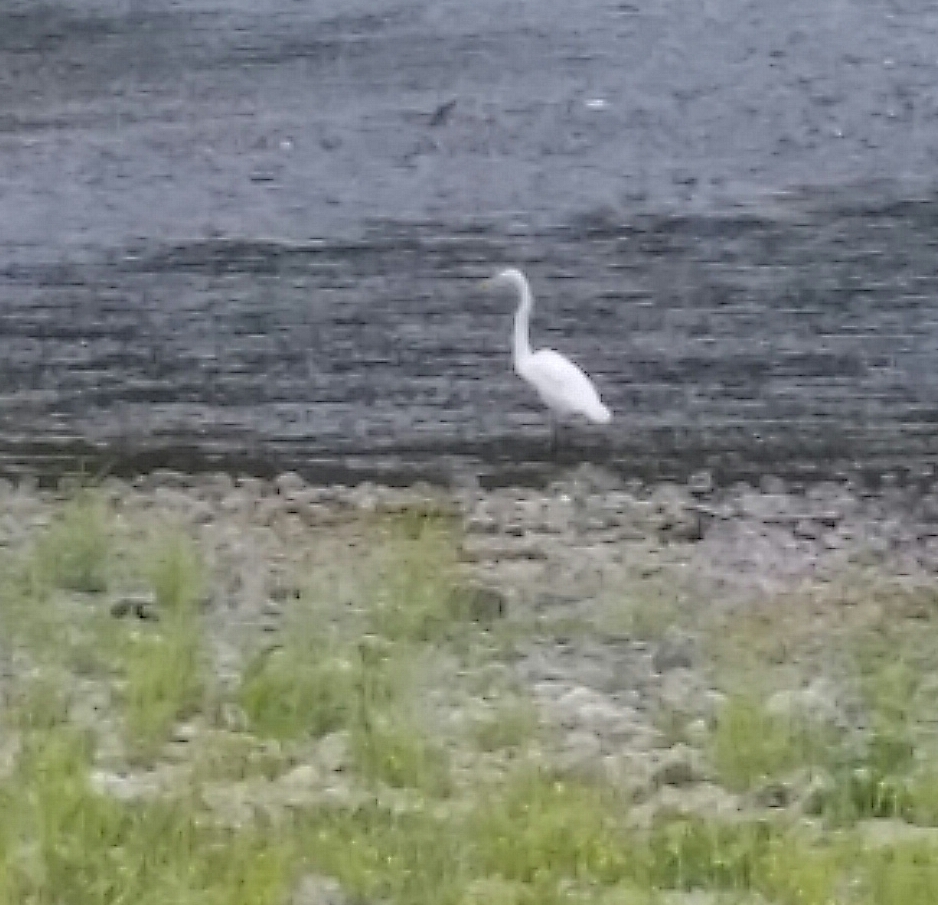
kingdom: Animalia
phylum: Chordata
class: Aves
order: Pelecaniformes
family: Ardeidae
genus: Ardea
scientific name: Ardea alba
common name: Great egret
